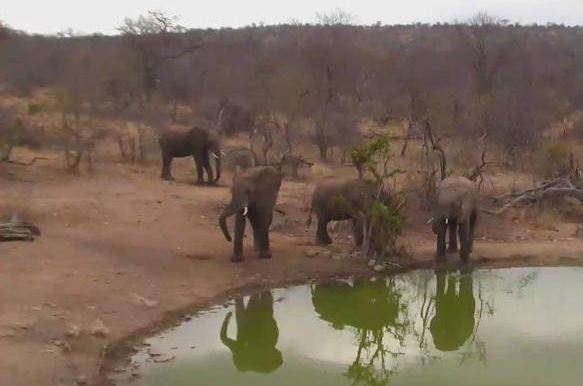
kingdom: Animalia
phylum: Chordata
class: Mammalia
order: Proboscidea
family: Elephantidae
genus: Loxodonta
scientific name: Loxodonta africana
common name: African elephant
